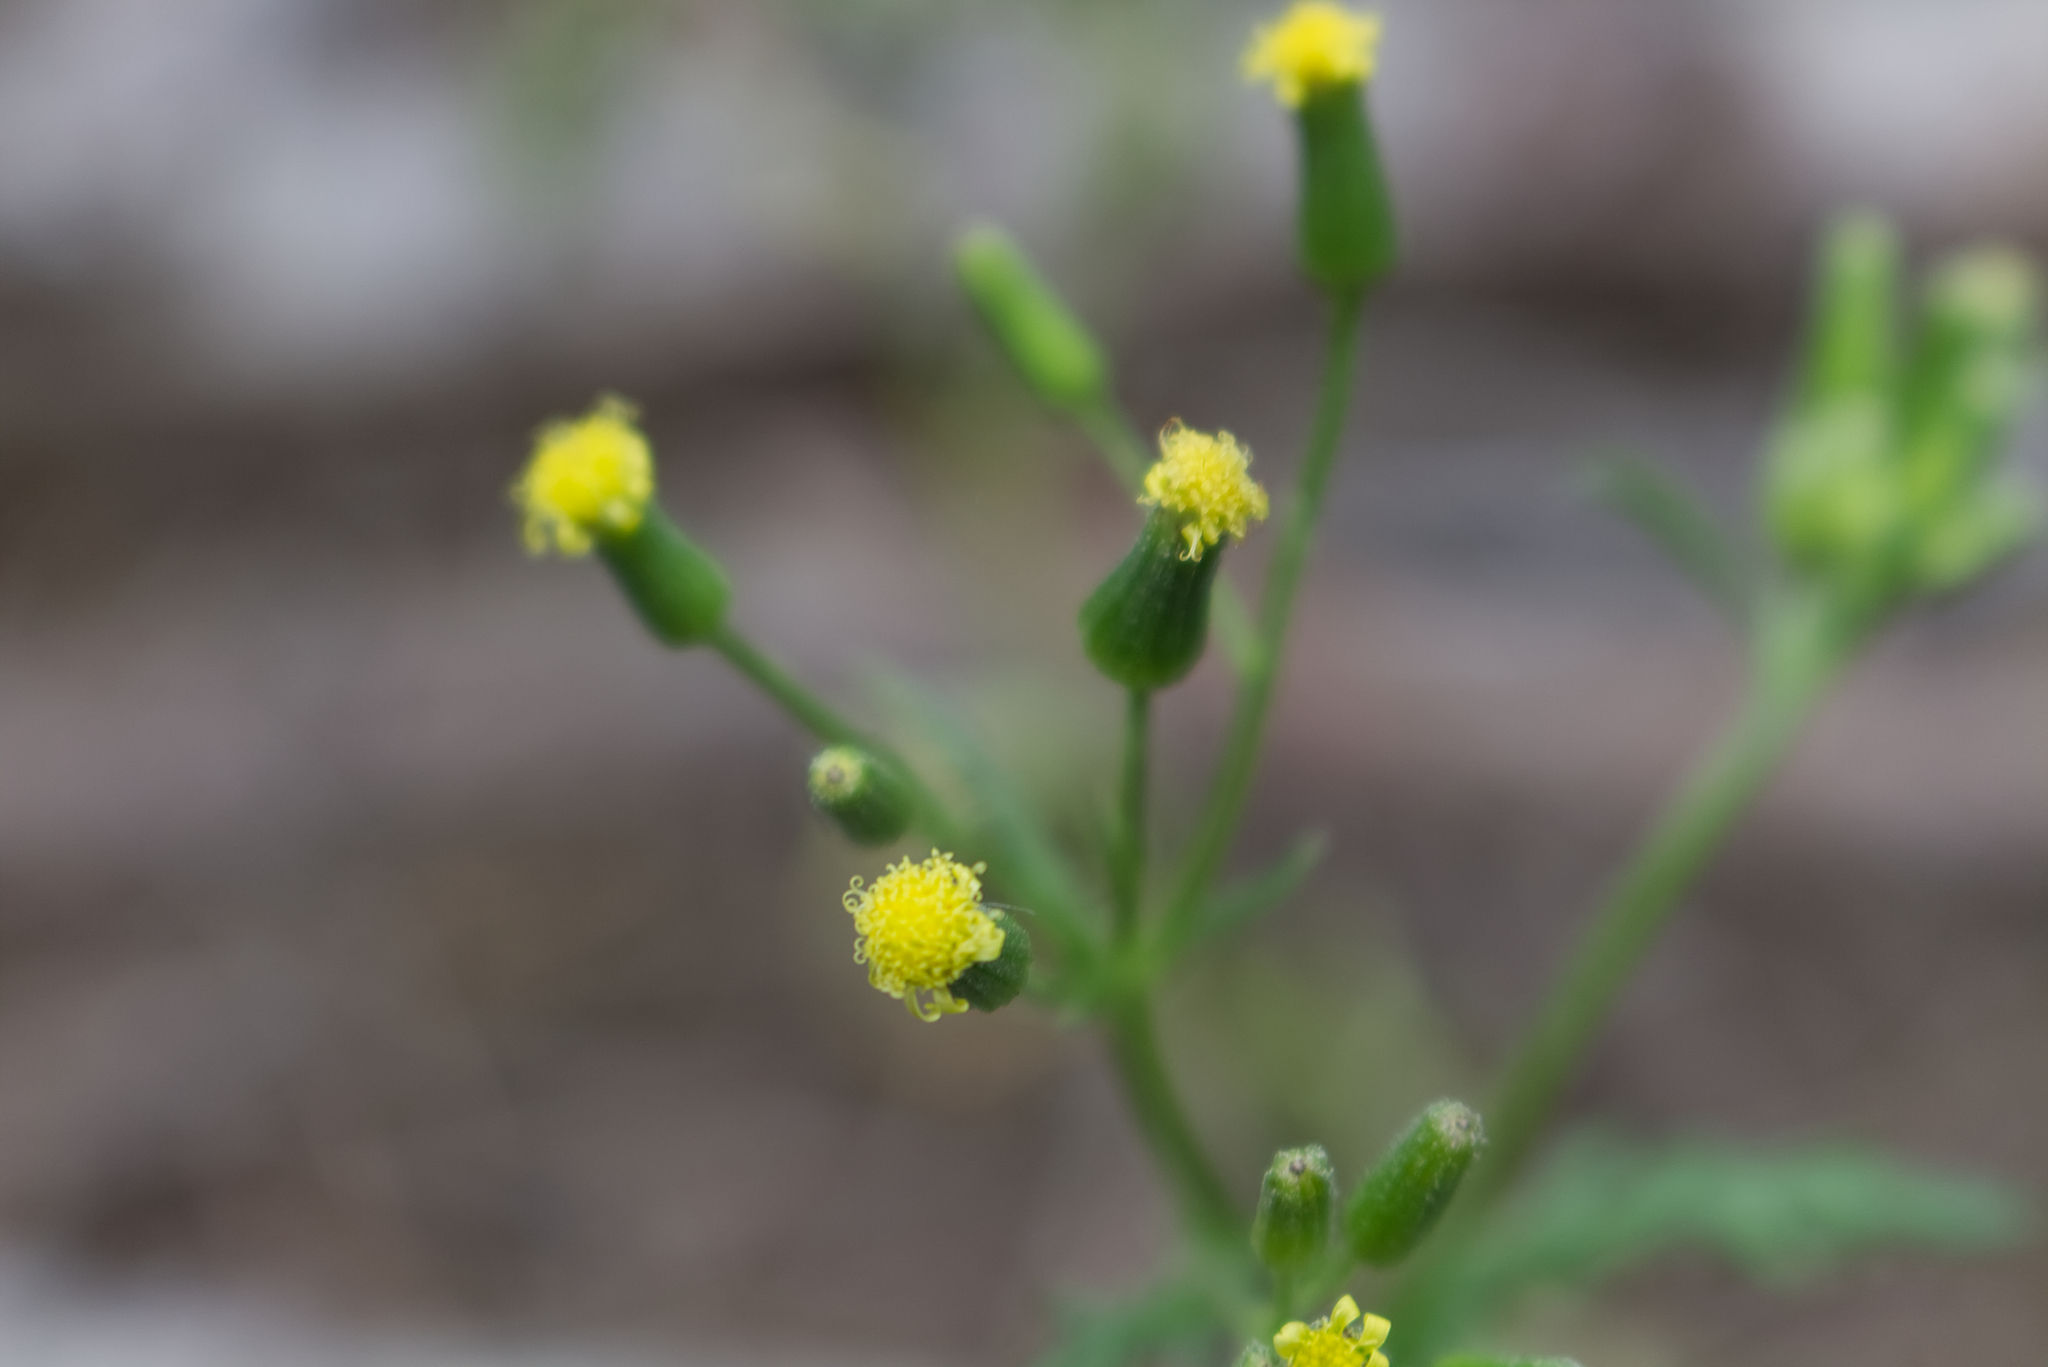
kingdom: Plantae
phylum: Tracheophyta
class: Magnoliopsida
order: Asterales
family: Asteraceae
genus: Senecio
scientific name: Senecio sylvaticus
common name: Woodland ragwort
